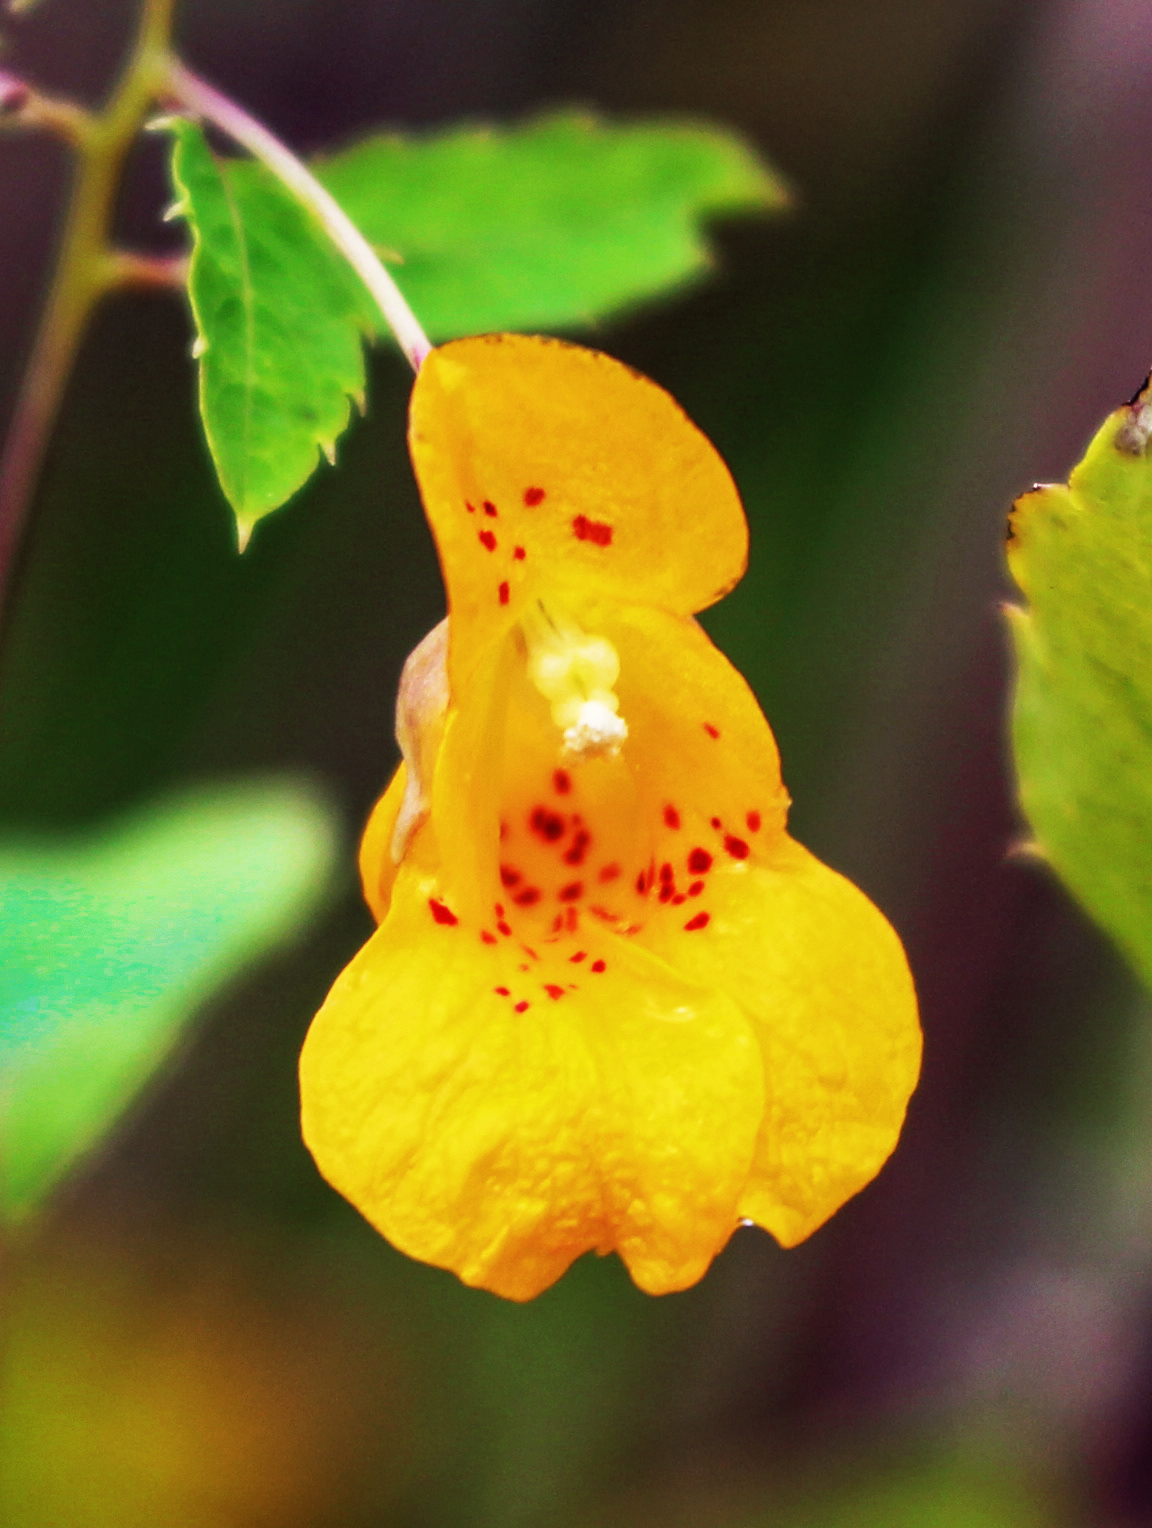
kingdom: Plantae
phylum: Tracheophyta
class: Magnoliopsida
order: Ericales
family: Balsaminaceae
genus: Impatiens
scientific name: Impatiens capensis
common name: Orange balsam
